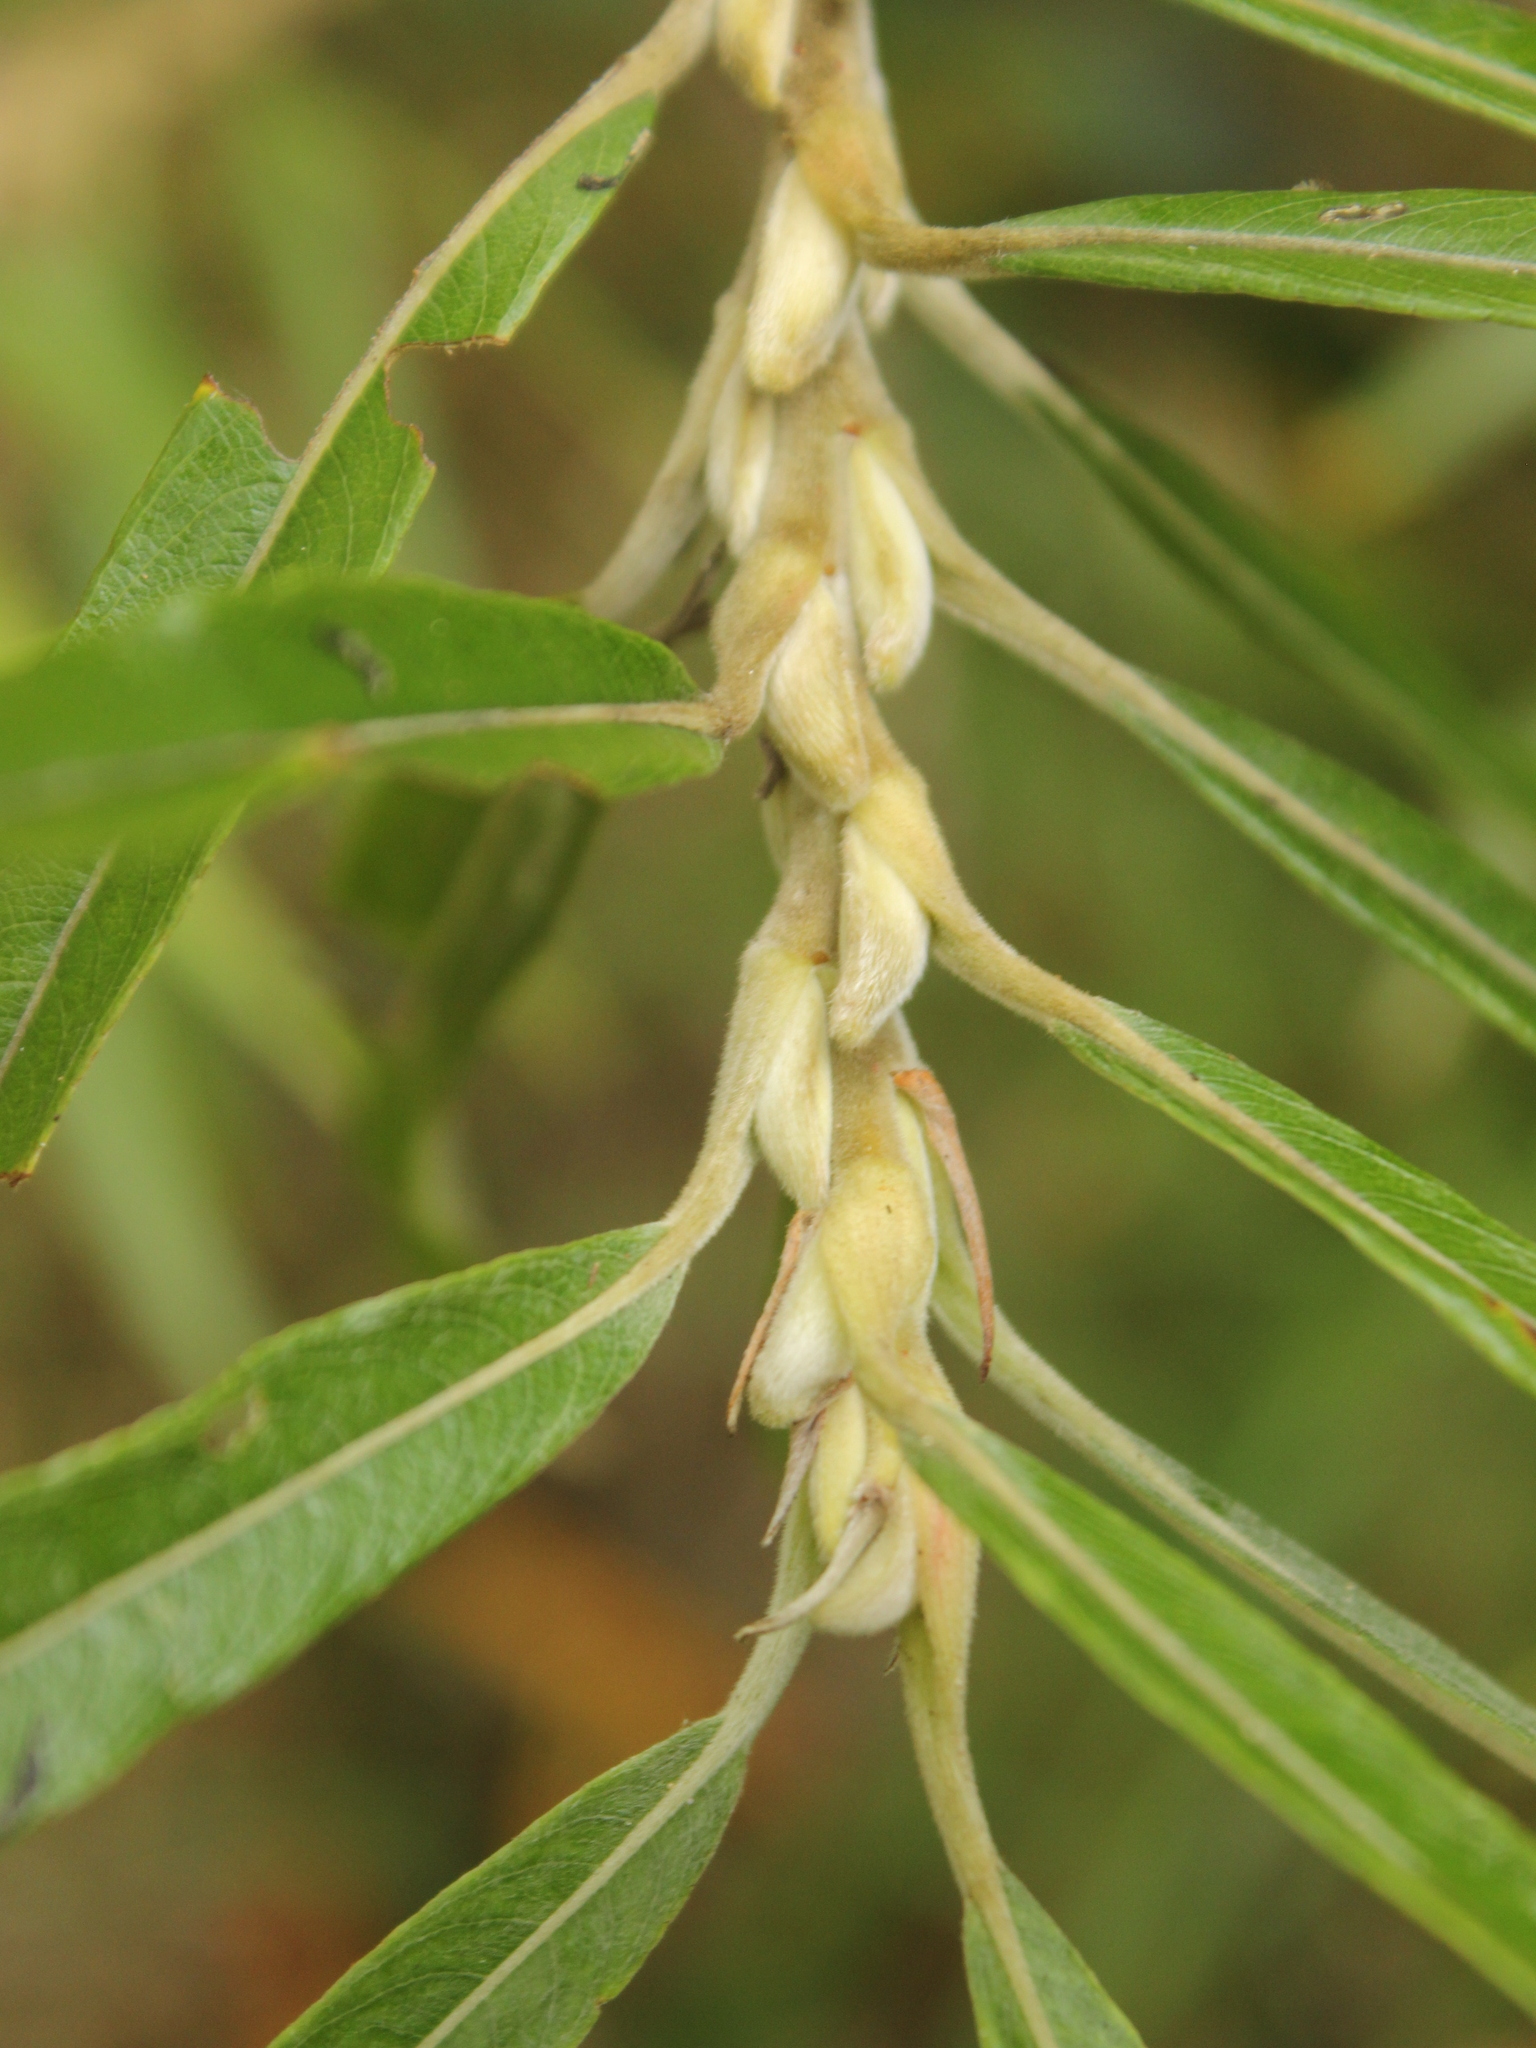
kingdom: Plantae
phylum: Tracheophyta
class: Magnoliopsida
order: Malpighiales
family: Salicaceae
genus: Salix
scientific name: Salix viminalis
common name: Osier
